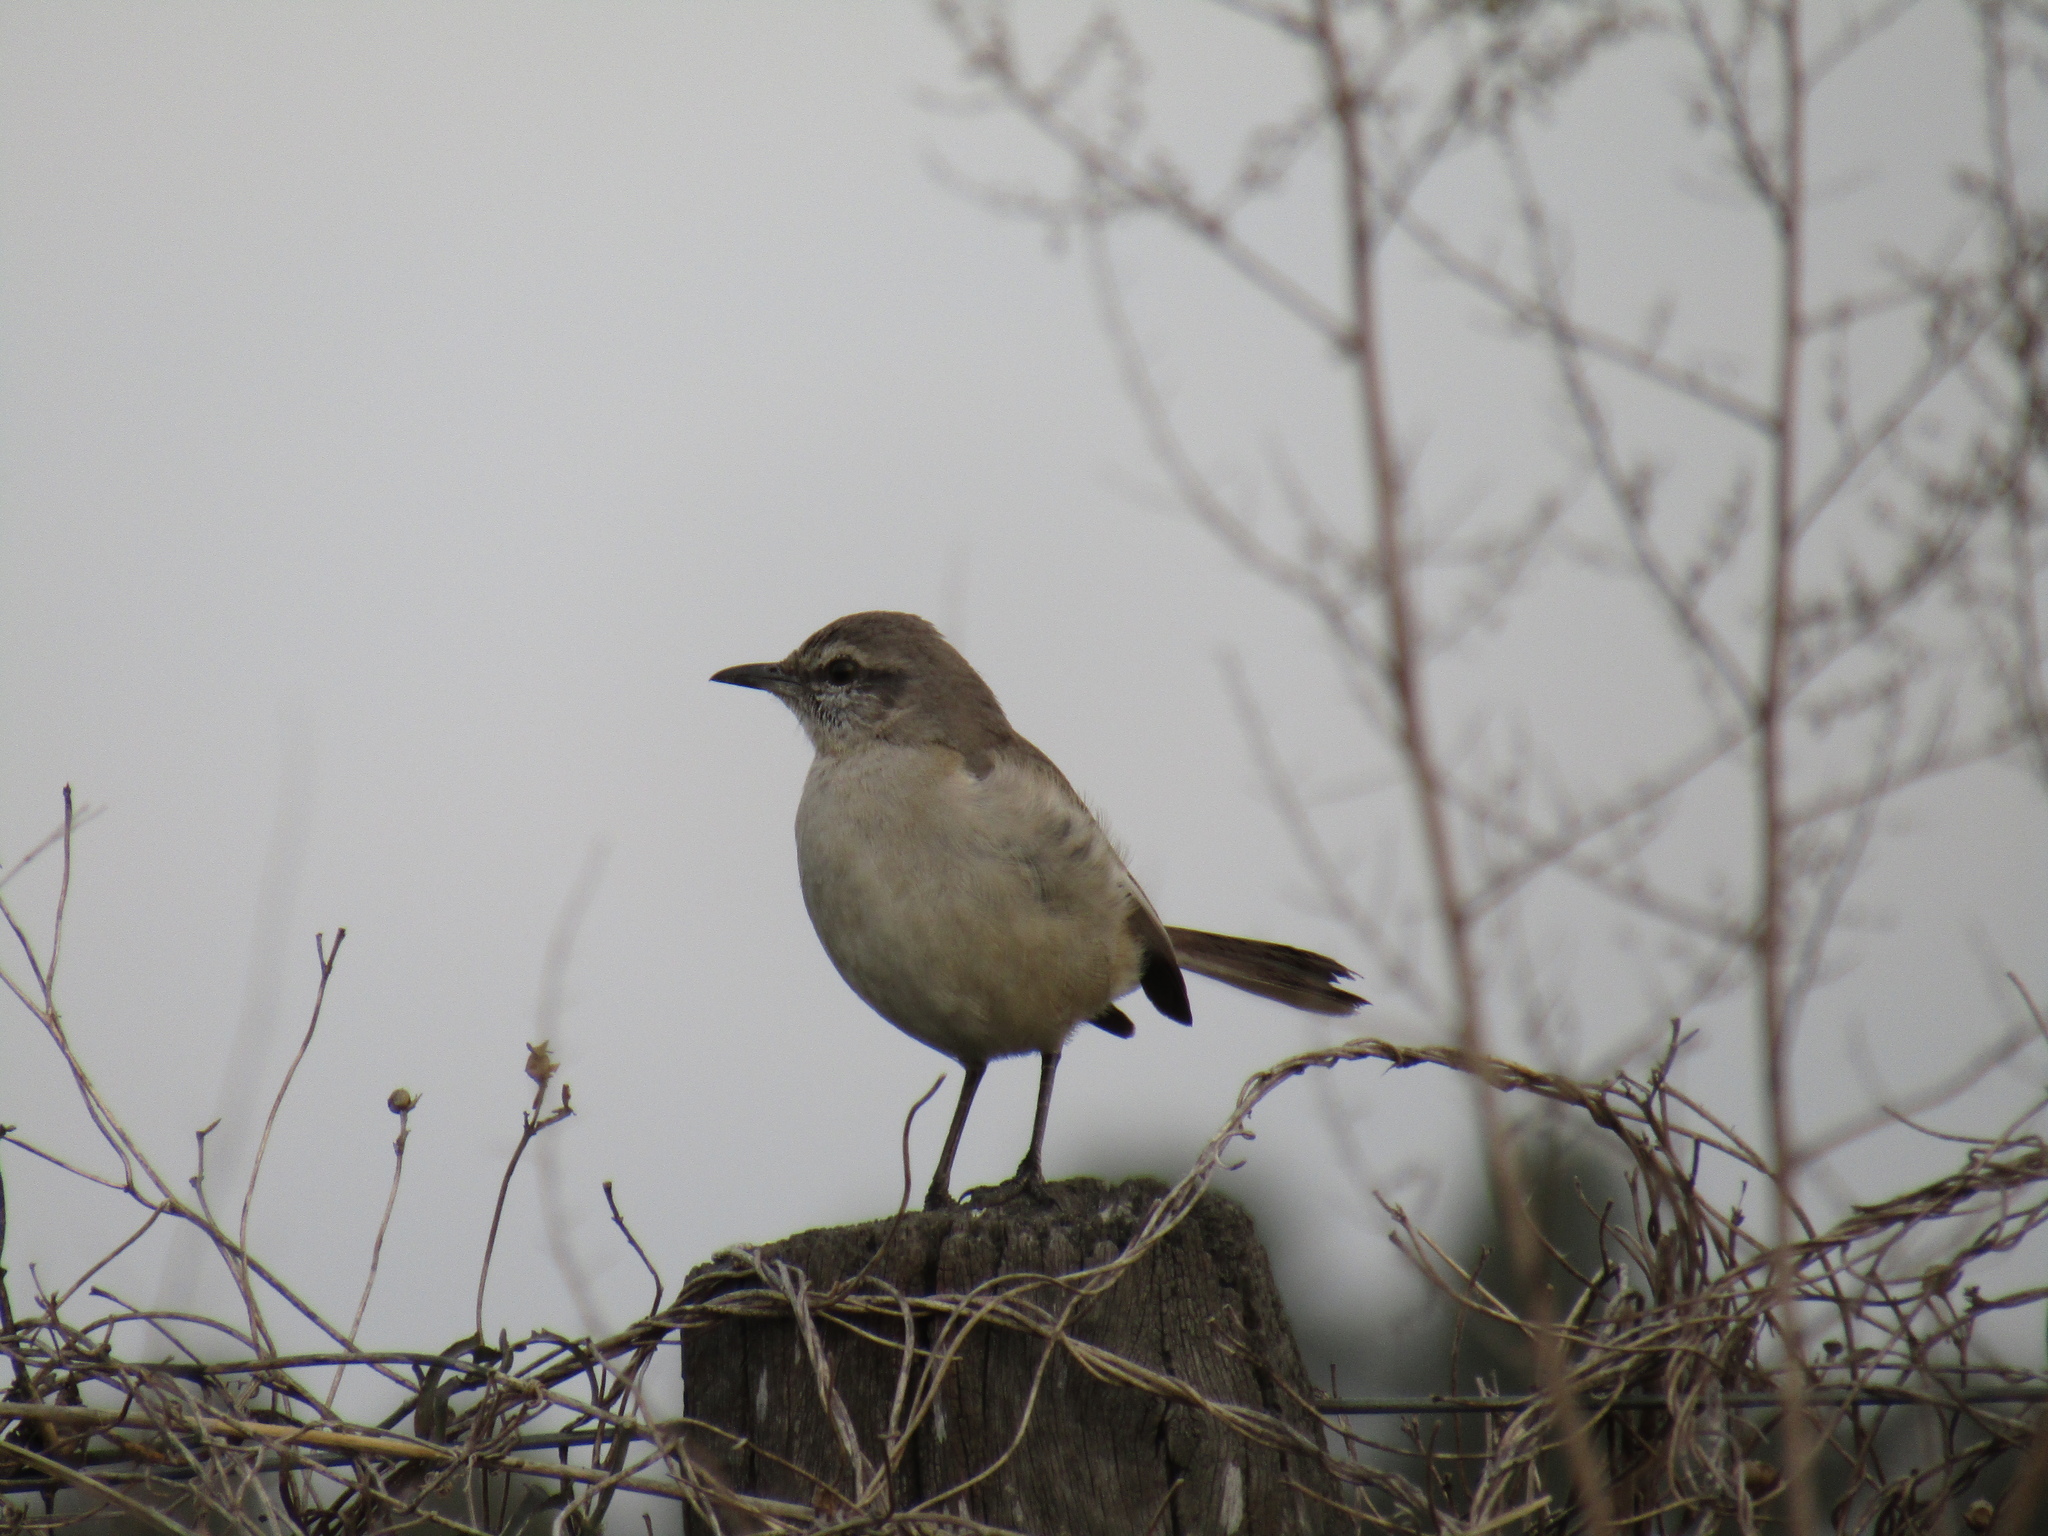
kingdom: Animalia
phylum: Chordata
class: Aves
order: Passeriformes
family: Mimidae
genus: Mimus
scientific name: Mimus saturninus
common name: Chalk-browed mockingbird
